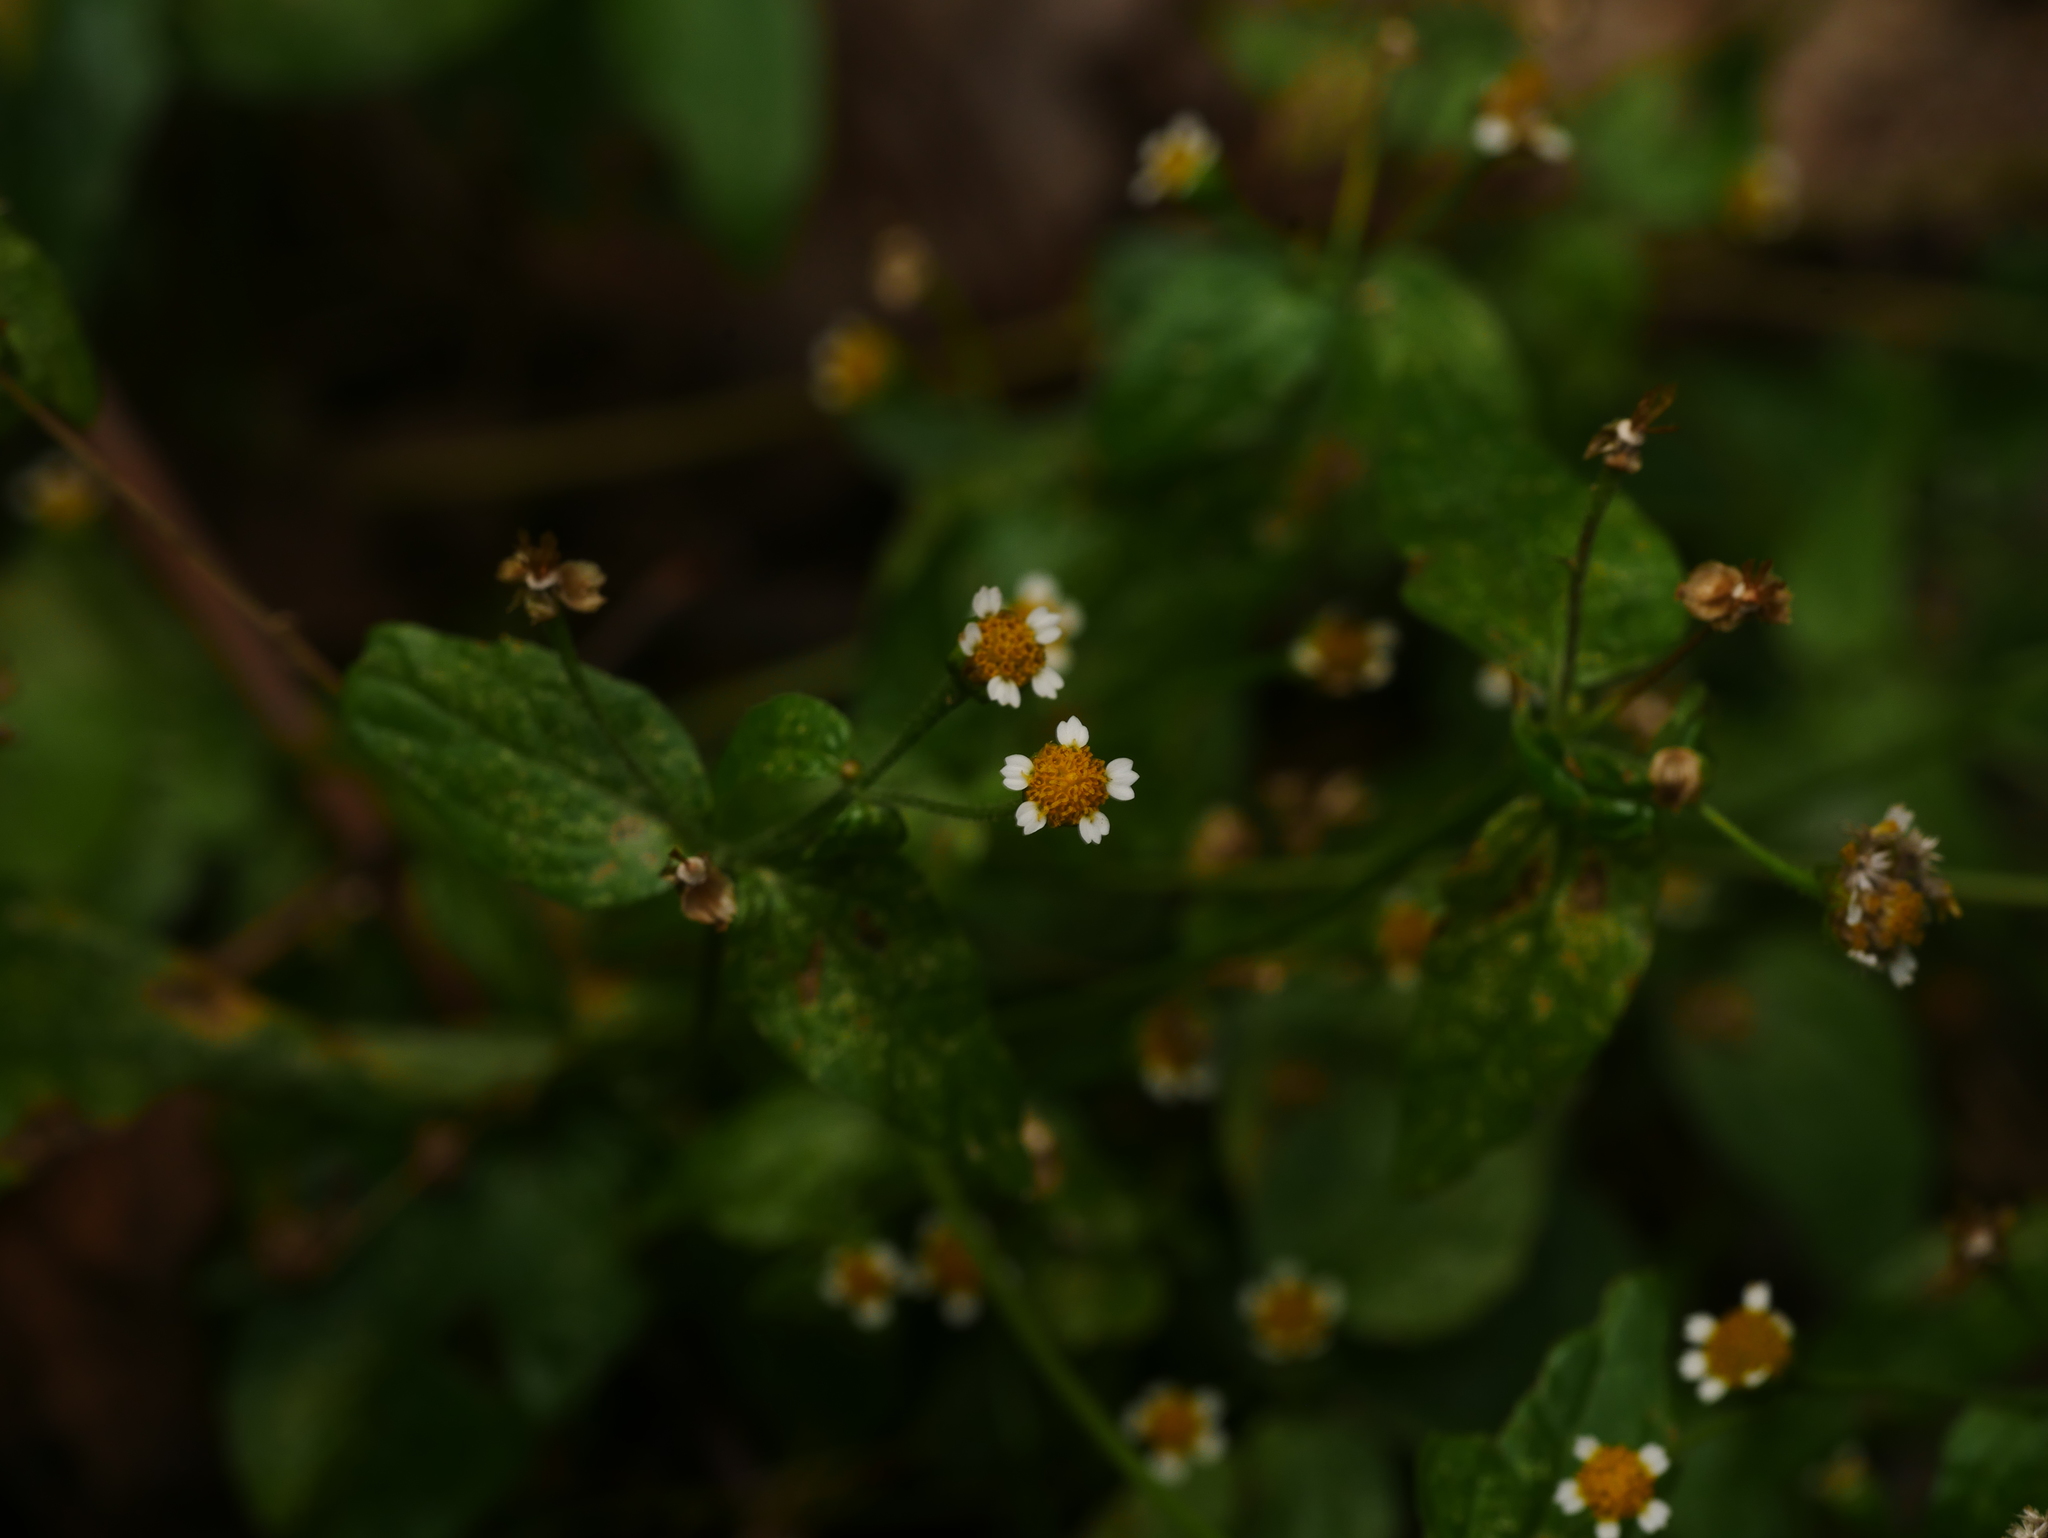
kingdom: Plantae
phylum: Tracheophyta
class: Magnoliopsida
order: Asterales
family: Asteraceae
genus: Galinsoga
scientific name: Galinsoga parviflora
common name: Gallant soldier
